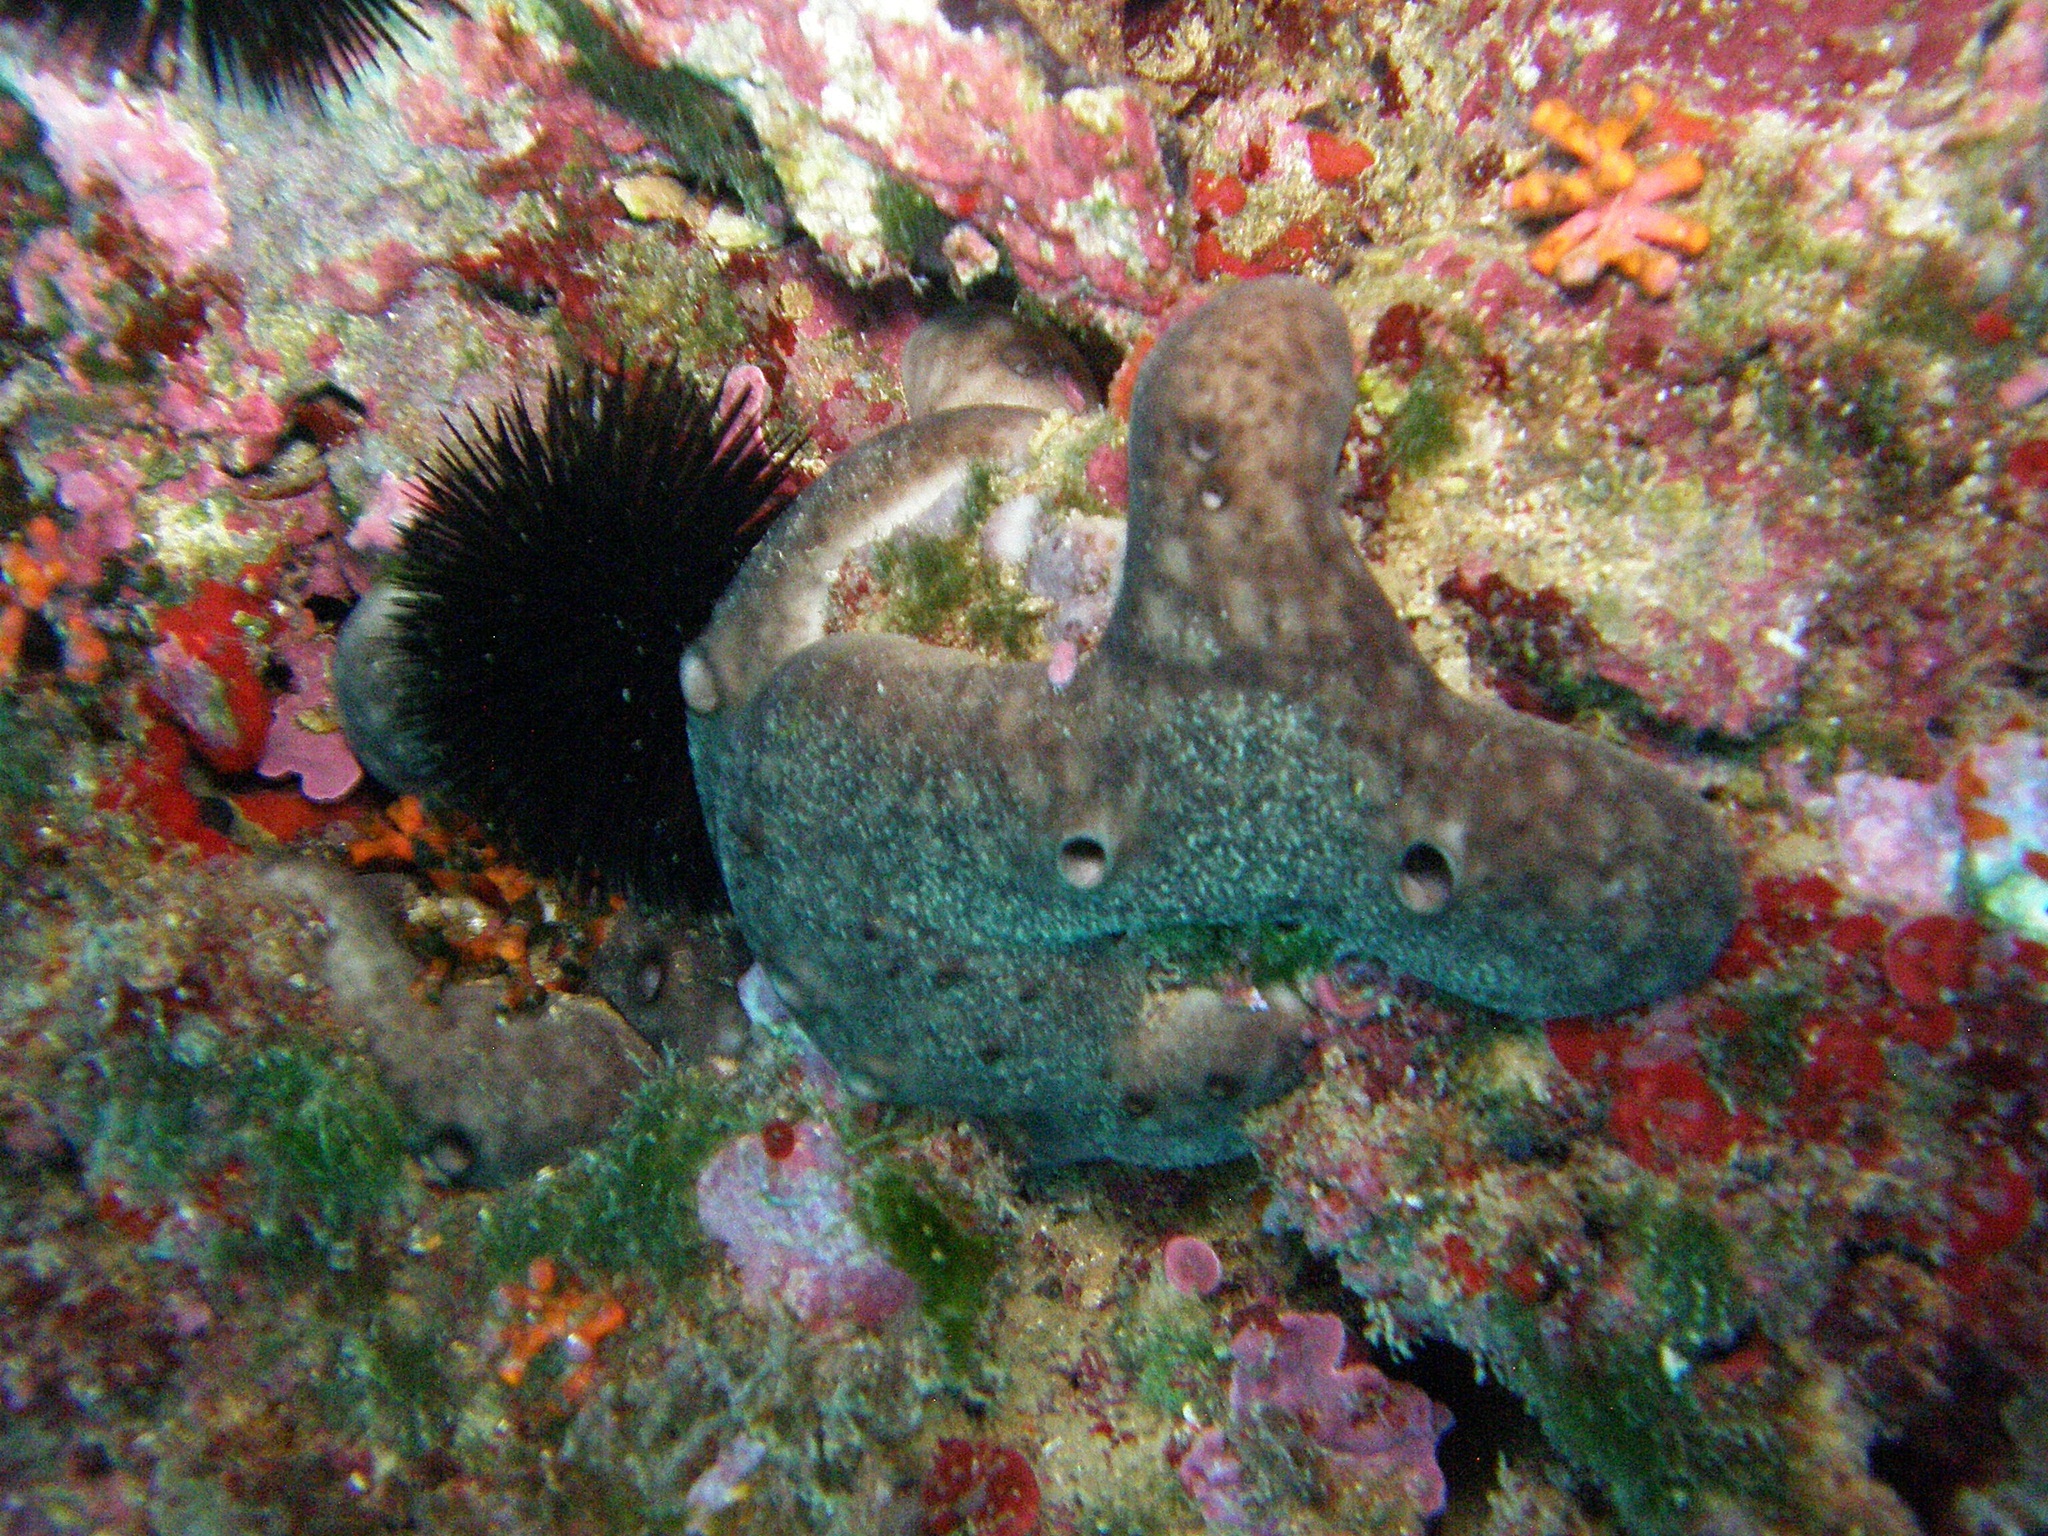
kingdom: Animalia
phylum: Porifera
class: Demospongiae
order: Chondrosiida
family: Chondrosiidae
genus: Chondrosia
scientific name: Chondrosia reniformis
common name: Chicken liver sponge
